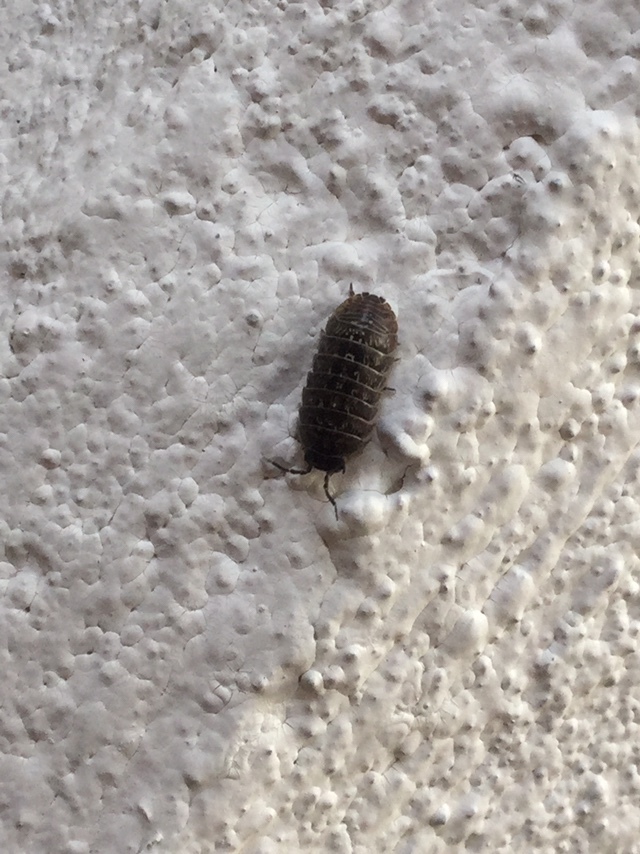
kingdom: Animalia
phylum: Arthropoda
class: Malacostraca
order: Isopoda
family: Armadillidiidae
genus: Armadillidium
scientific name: Armadillidium vulgare
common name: Common pill woodlouse
